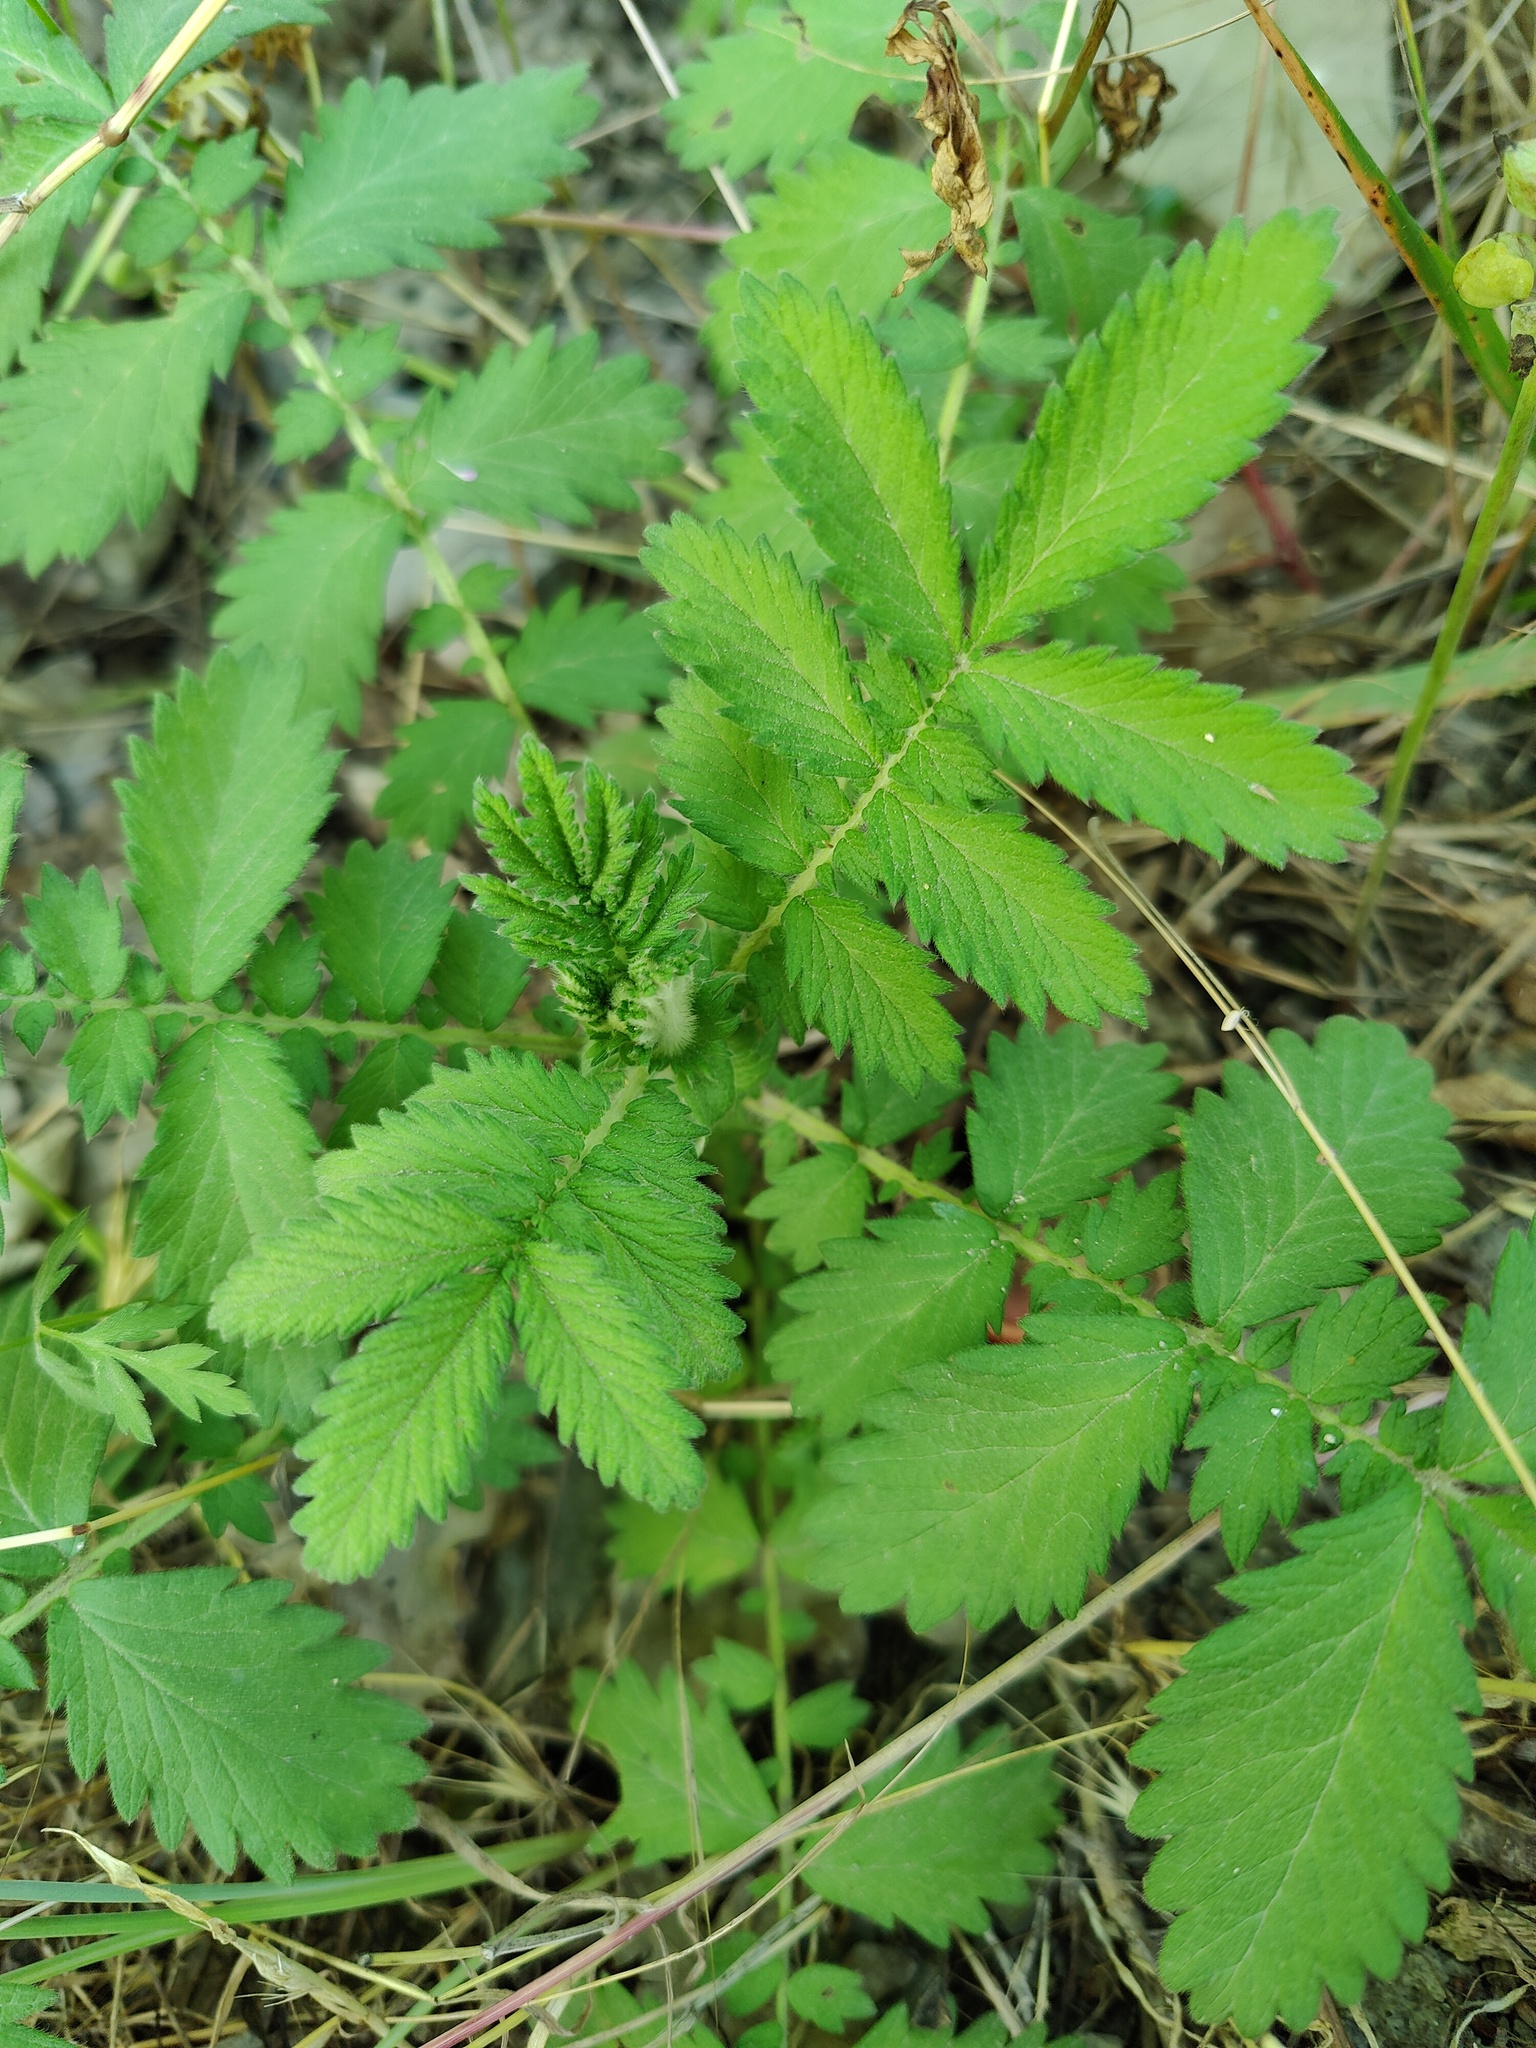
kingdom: Plantae
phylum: Tracheophyta
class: Magnoliopsida
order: Rosales
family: Rosaceae
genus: Agrimonia
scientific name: Agrimonia eupatoria
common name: Agrimony
